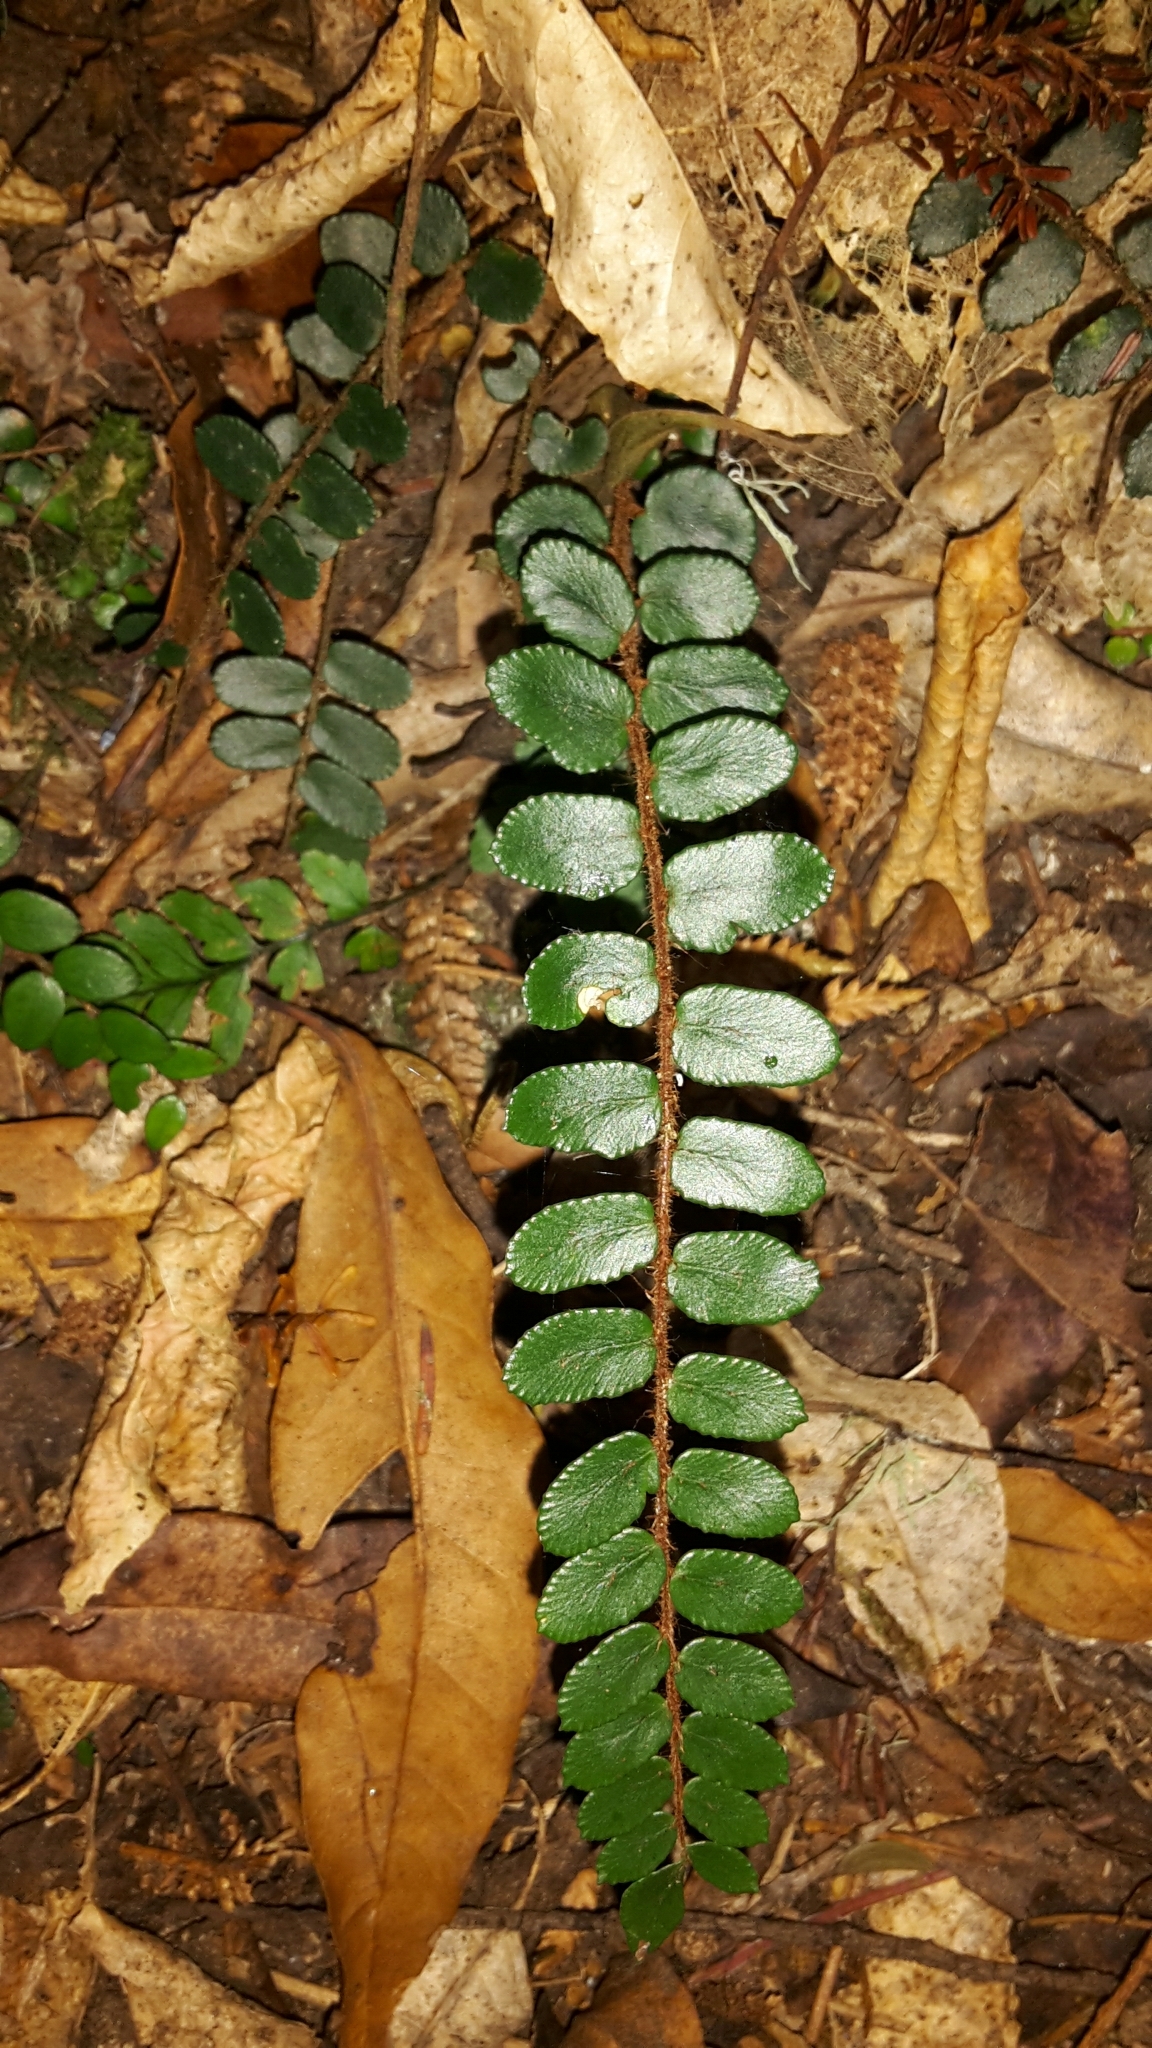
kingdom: Plantae
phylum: Tracheophyta
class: Polypodiopsida
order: Polypodiales
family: Pteridaceae
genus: Pellaea
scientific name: Pellaea rotundifolia
